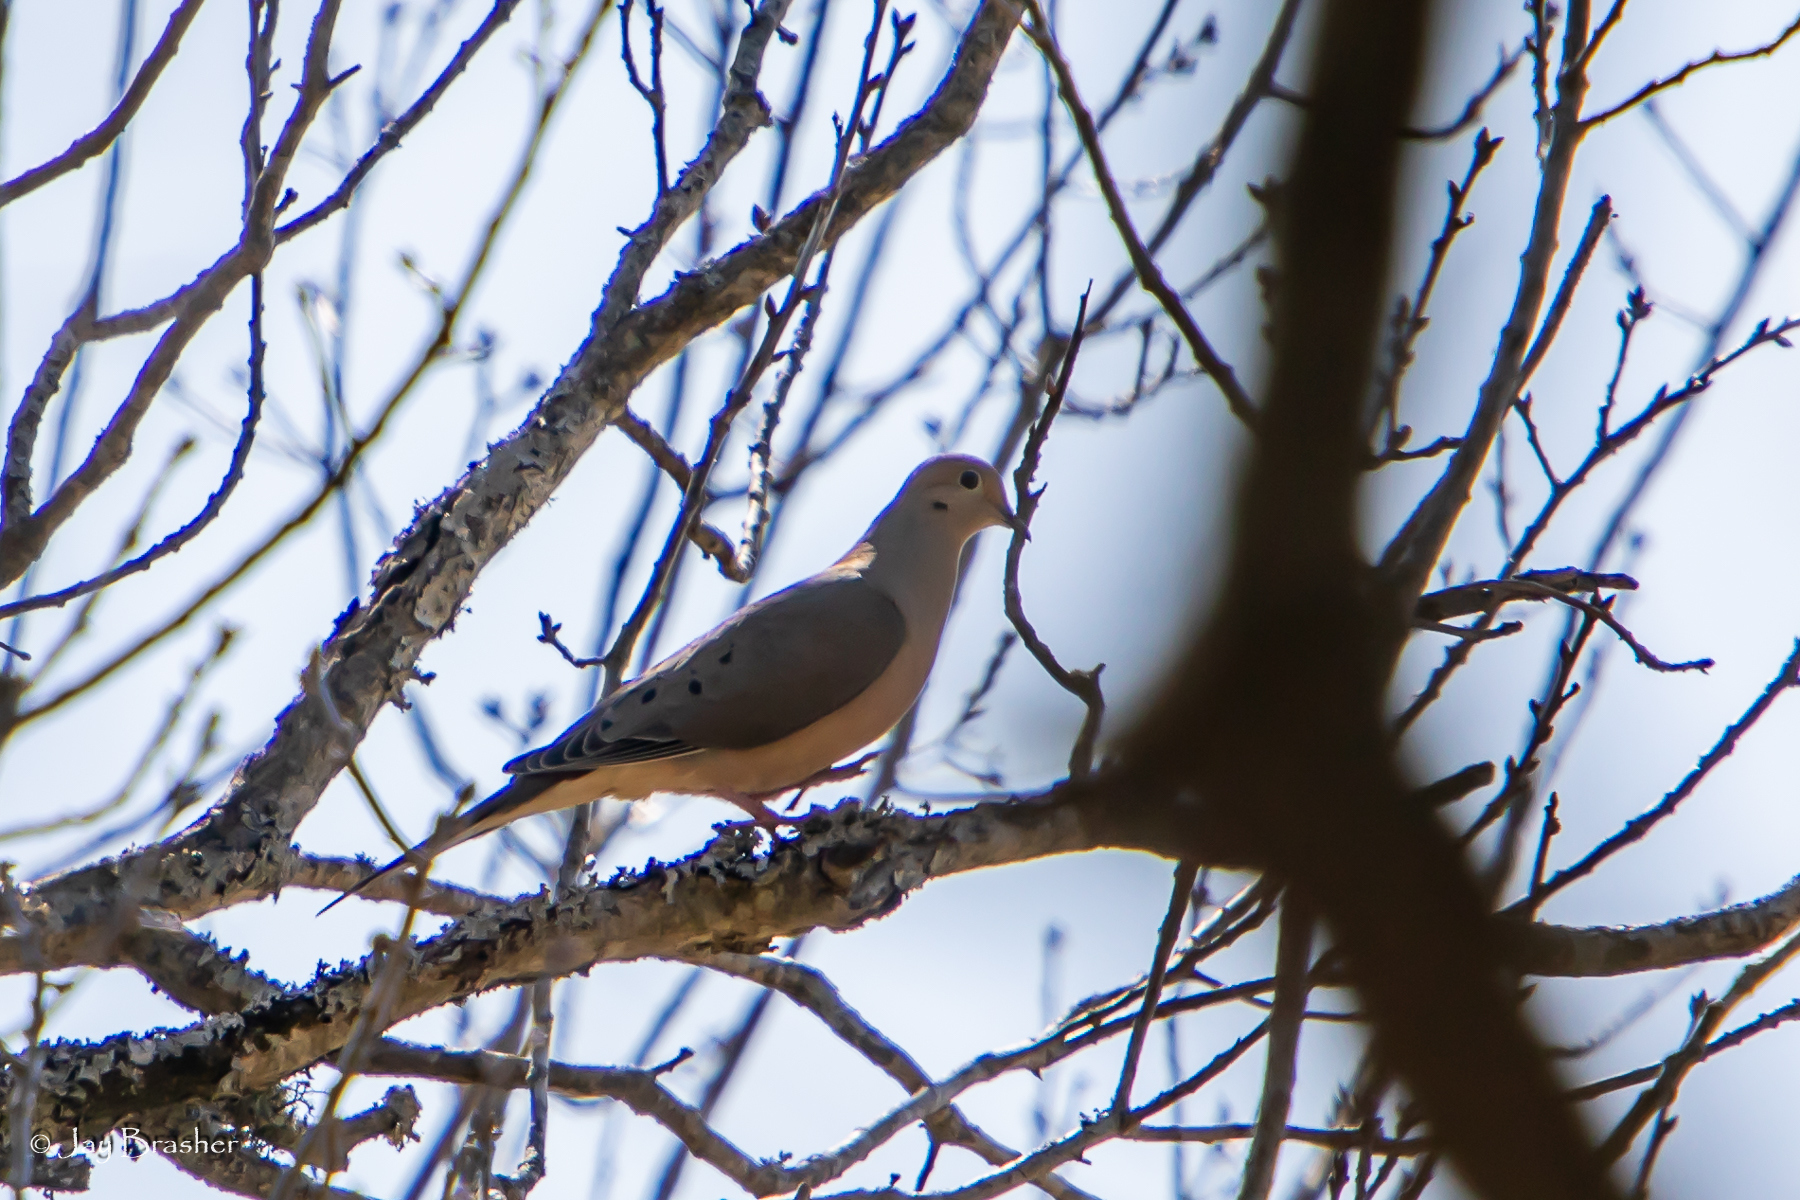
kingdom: Animalia
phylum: Chordata
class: Aves
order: Columbiformes
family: Columbidae
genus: Zenaida
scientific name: Zenaida macroura
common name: Mourning dove
